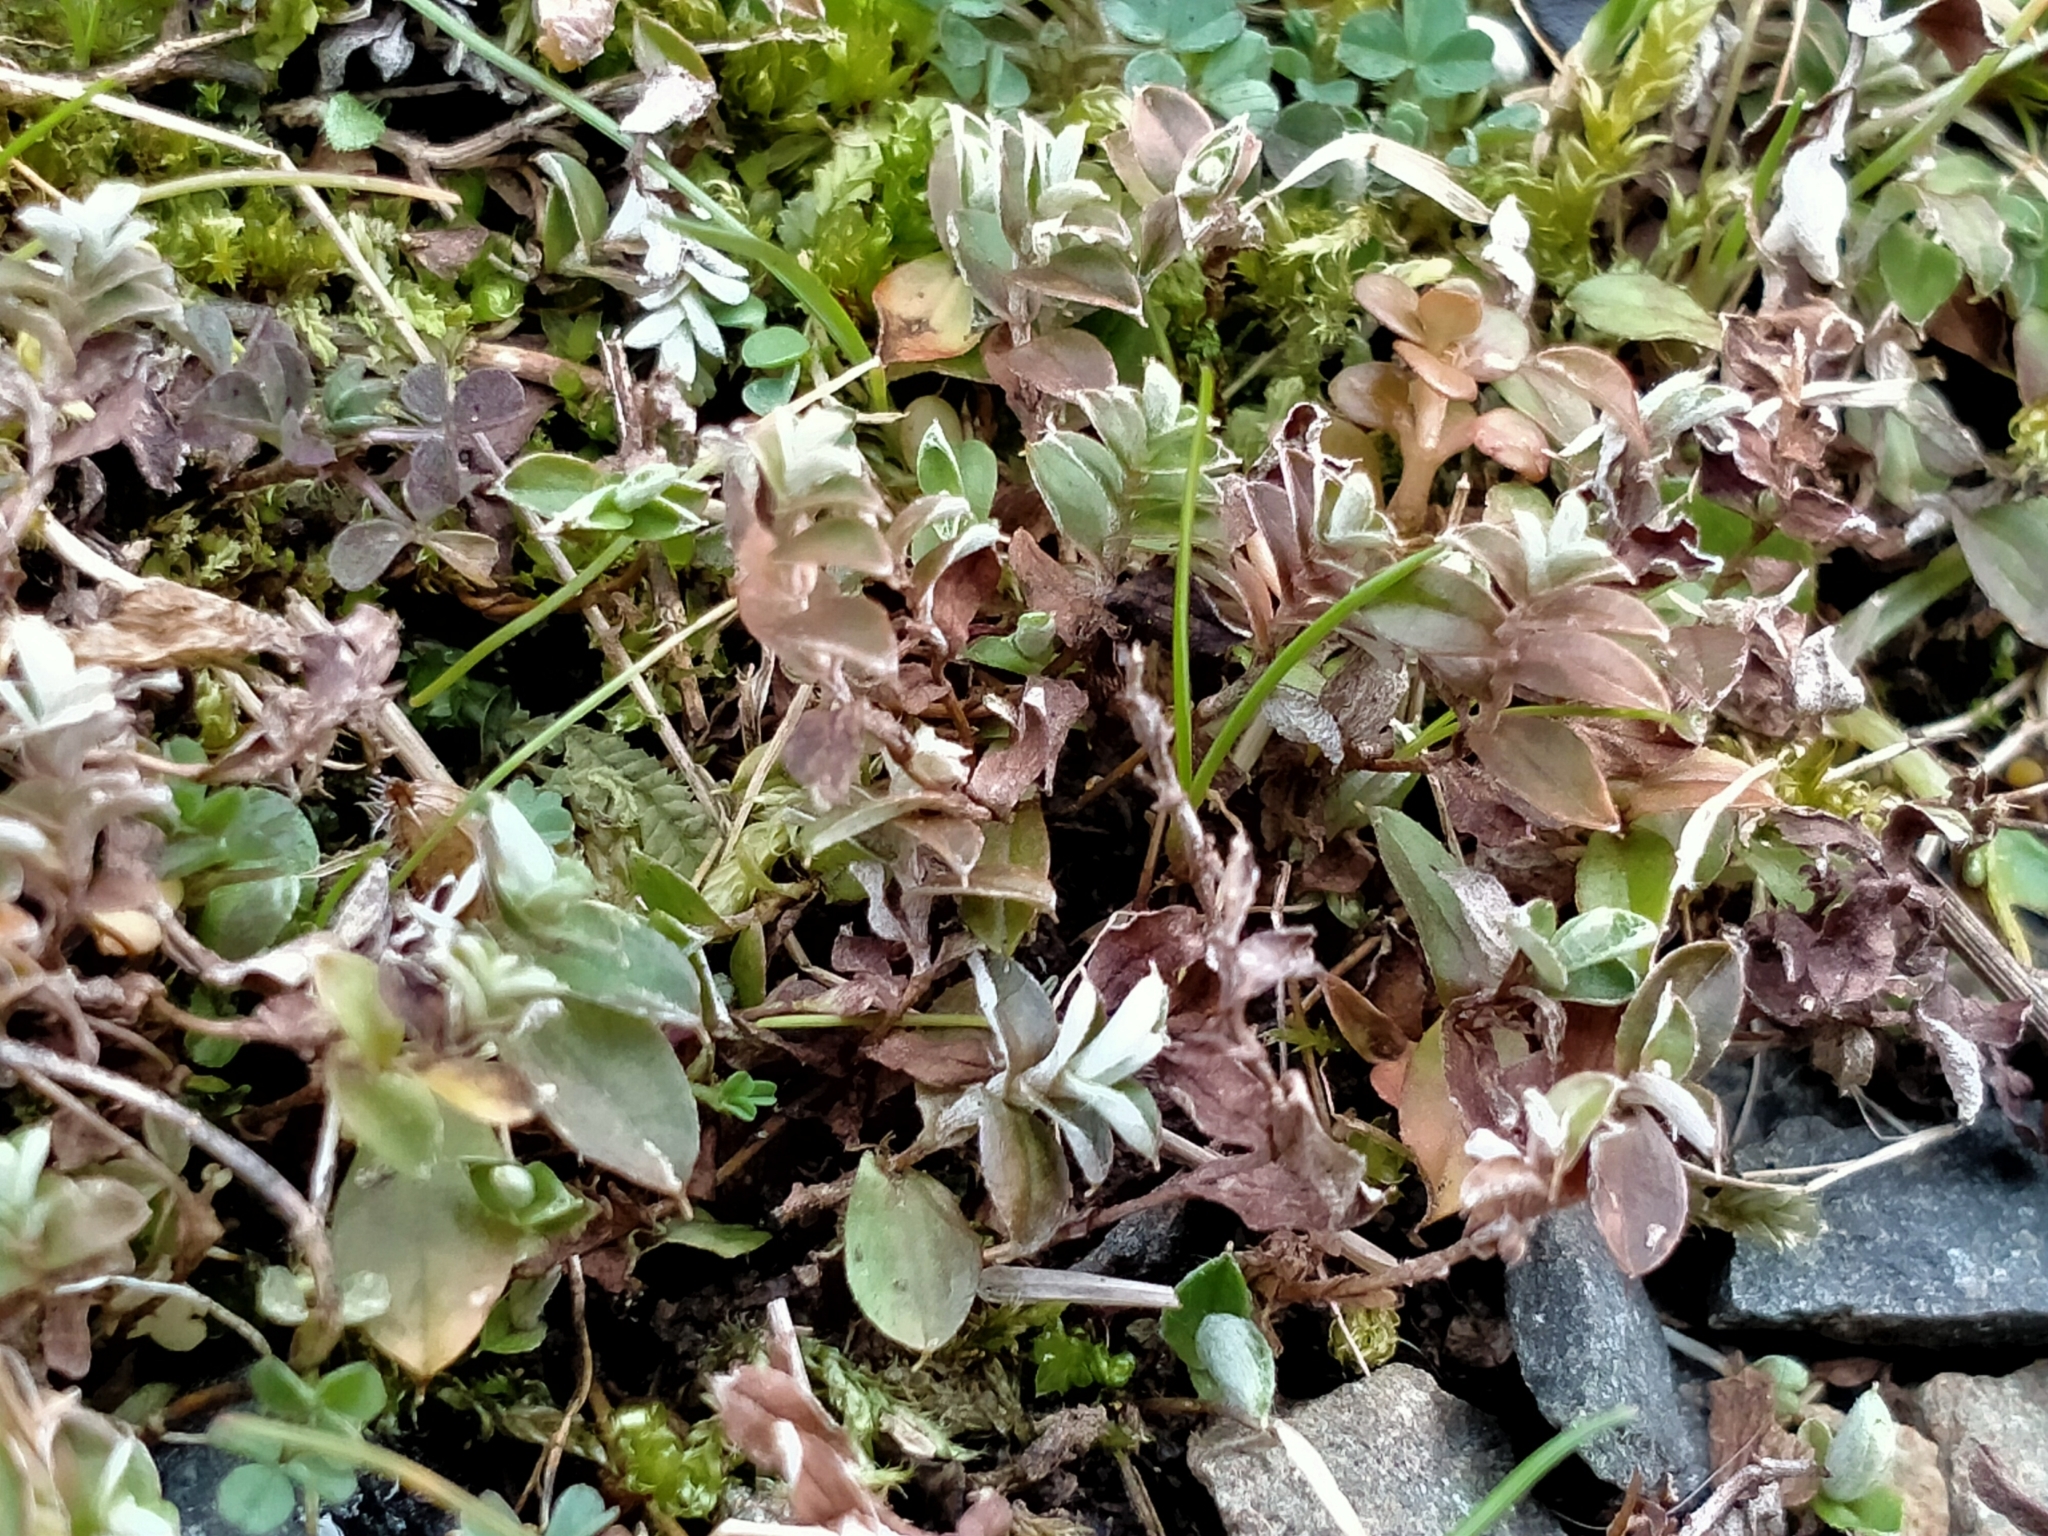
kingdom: Plantae
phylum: Tracheophyta
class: Magnoliopsida
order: Asterales
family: Asteraceae
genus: Helichrysum
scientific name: Helichrysum filicaule
